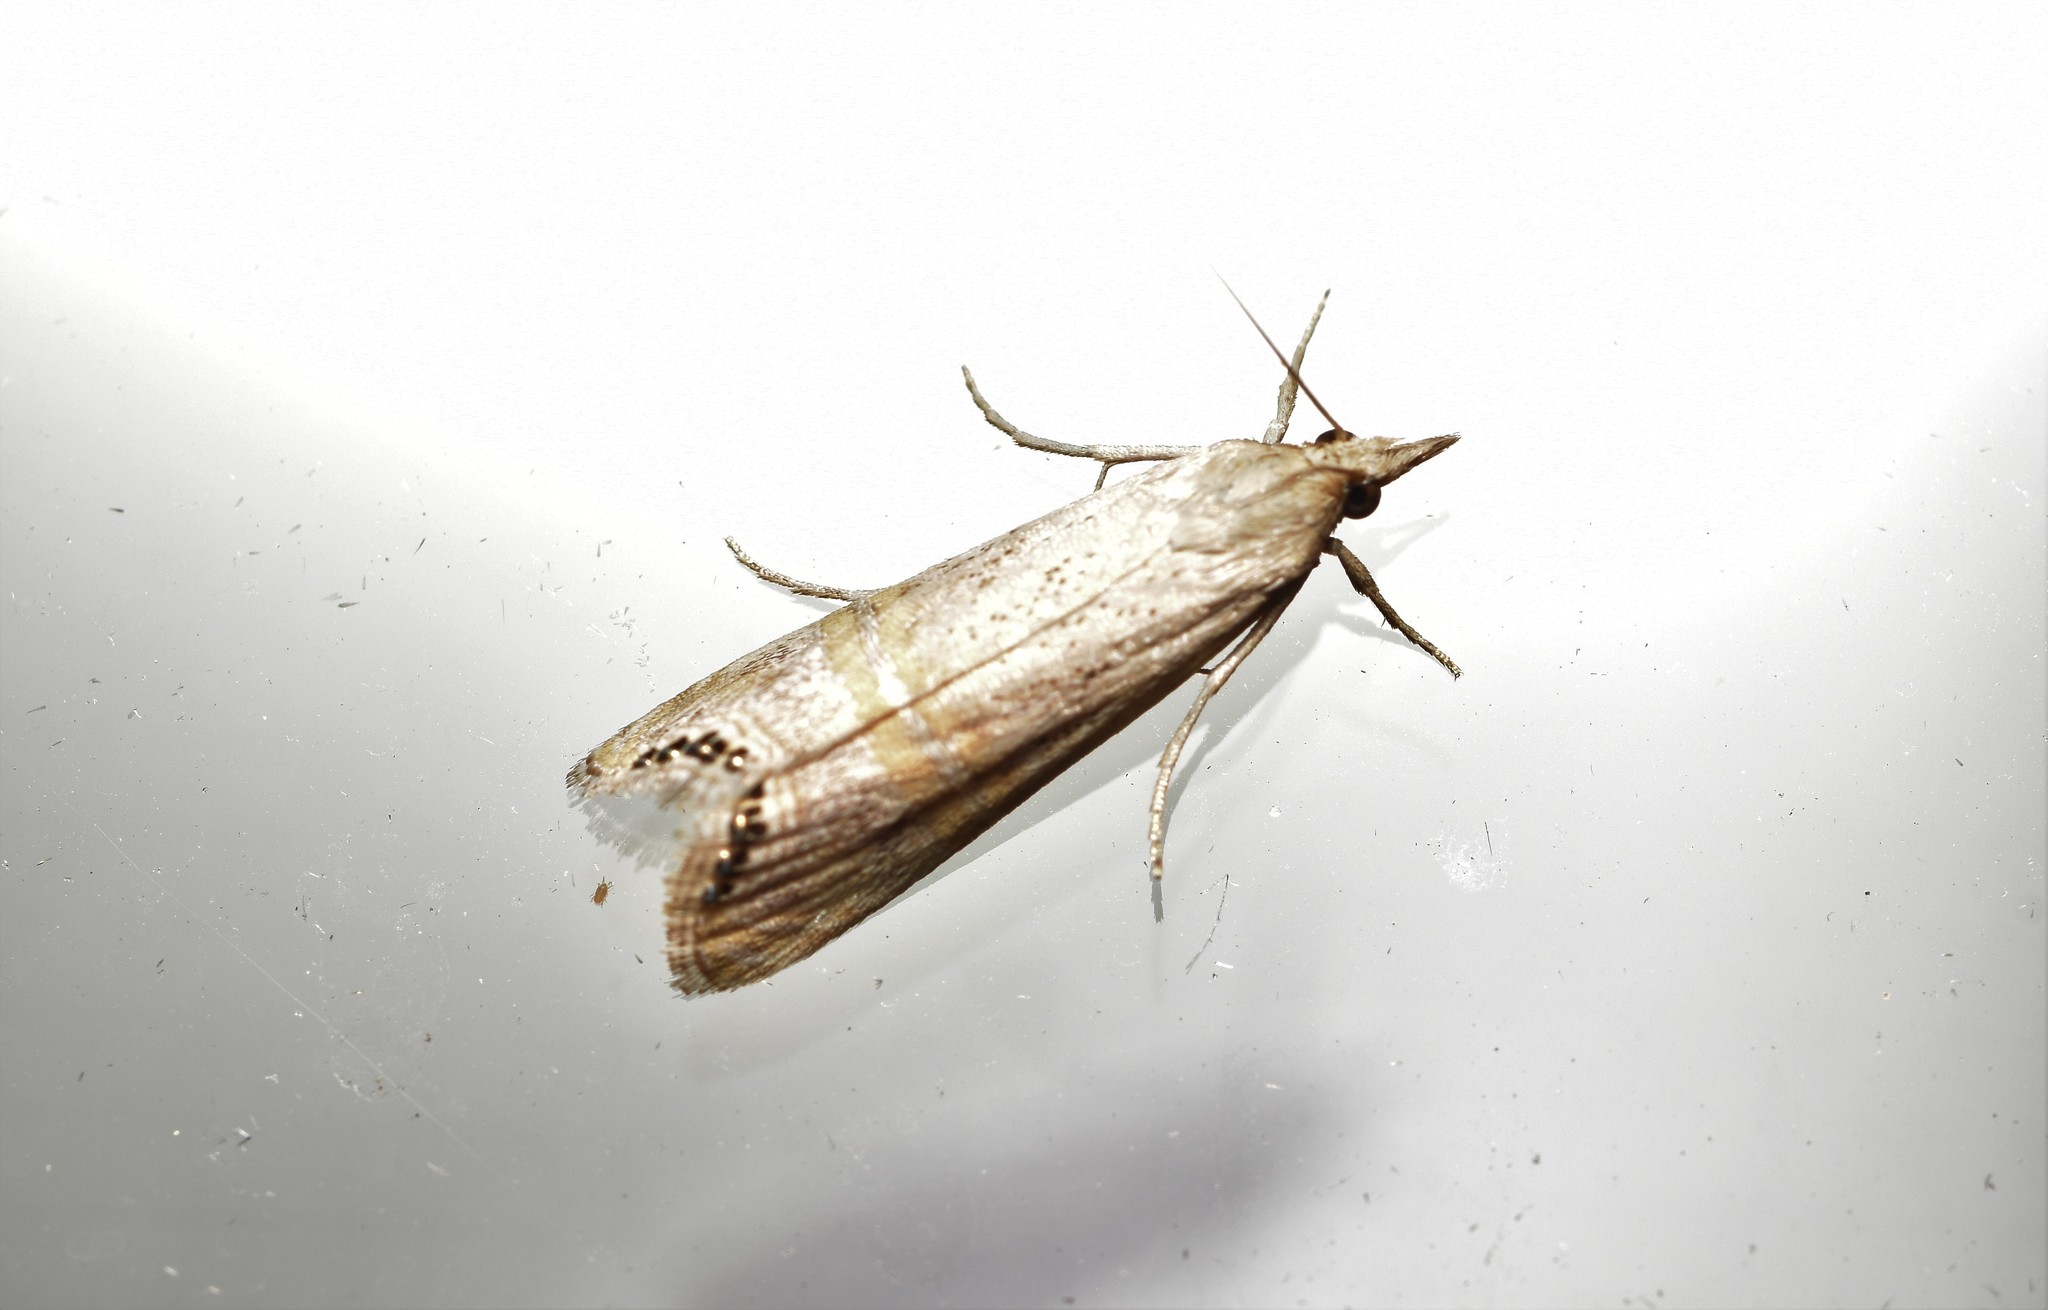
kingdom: Animalia
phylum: Arthropoda
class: Insecta
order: Lepidoptera
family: Crambidae
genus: Euchromius
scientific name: Euchromius ocellea
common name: Necklace veneer moth
